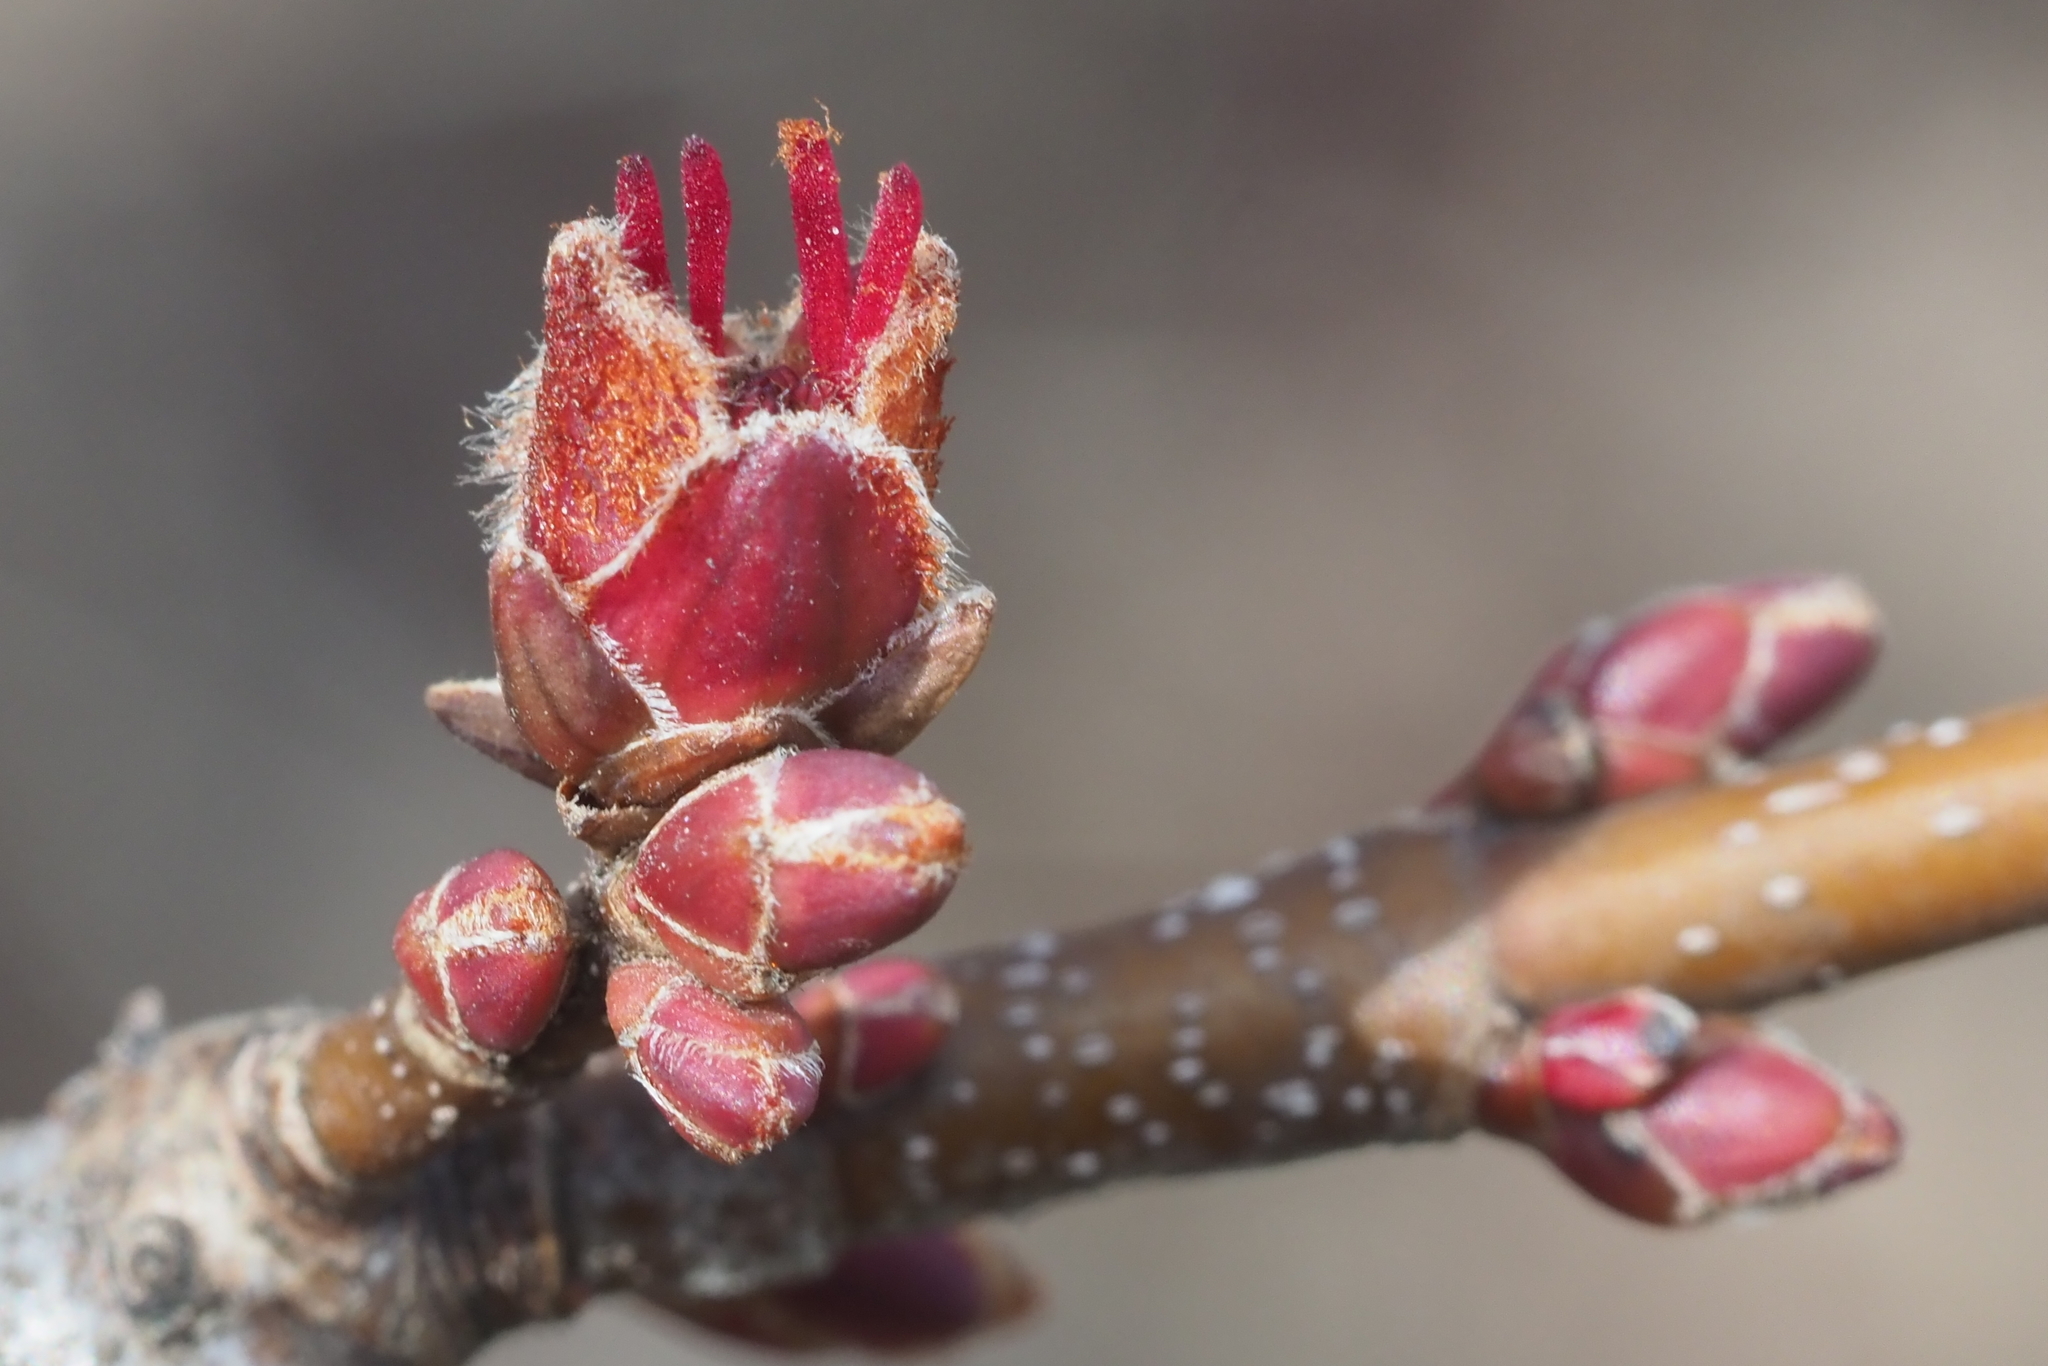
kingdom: Plantae
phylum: Tracheophyta
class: Magnoliopsida
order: Sapindales
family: Sapindaceae
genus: Acer
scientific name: Acer saccharinum
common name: Silver maple
